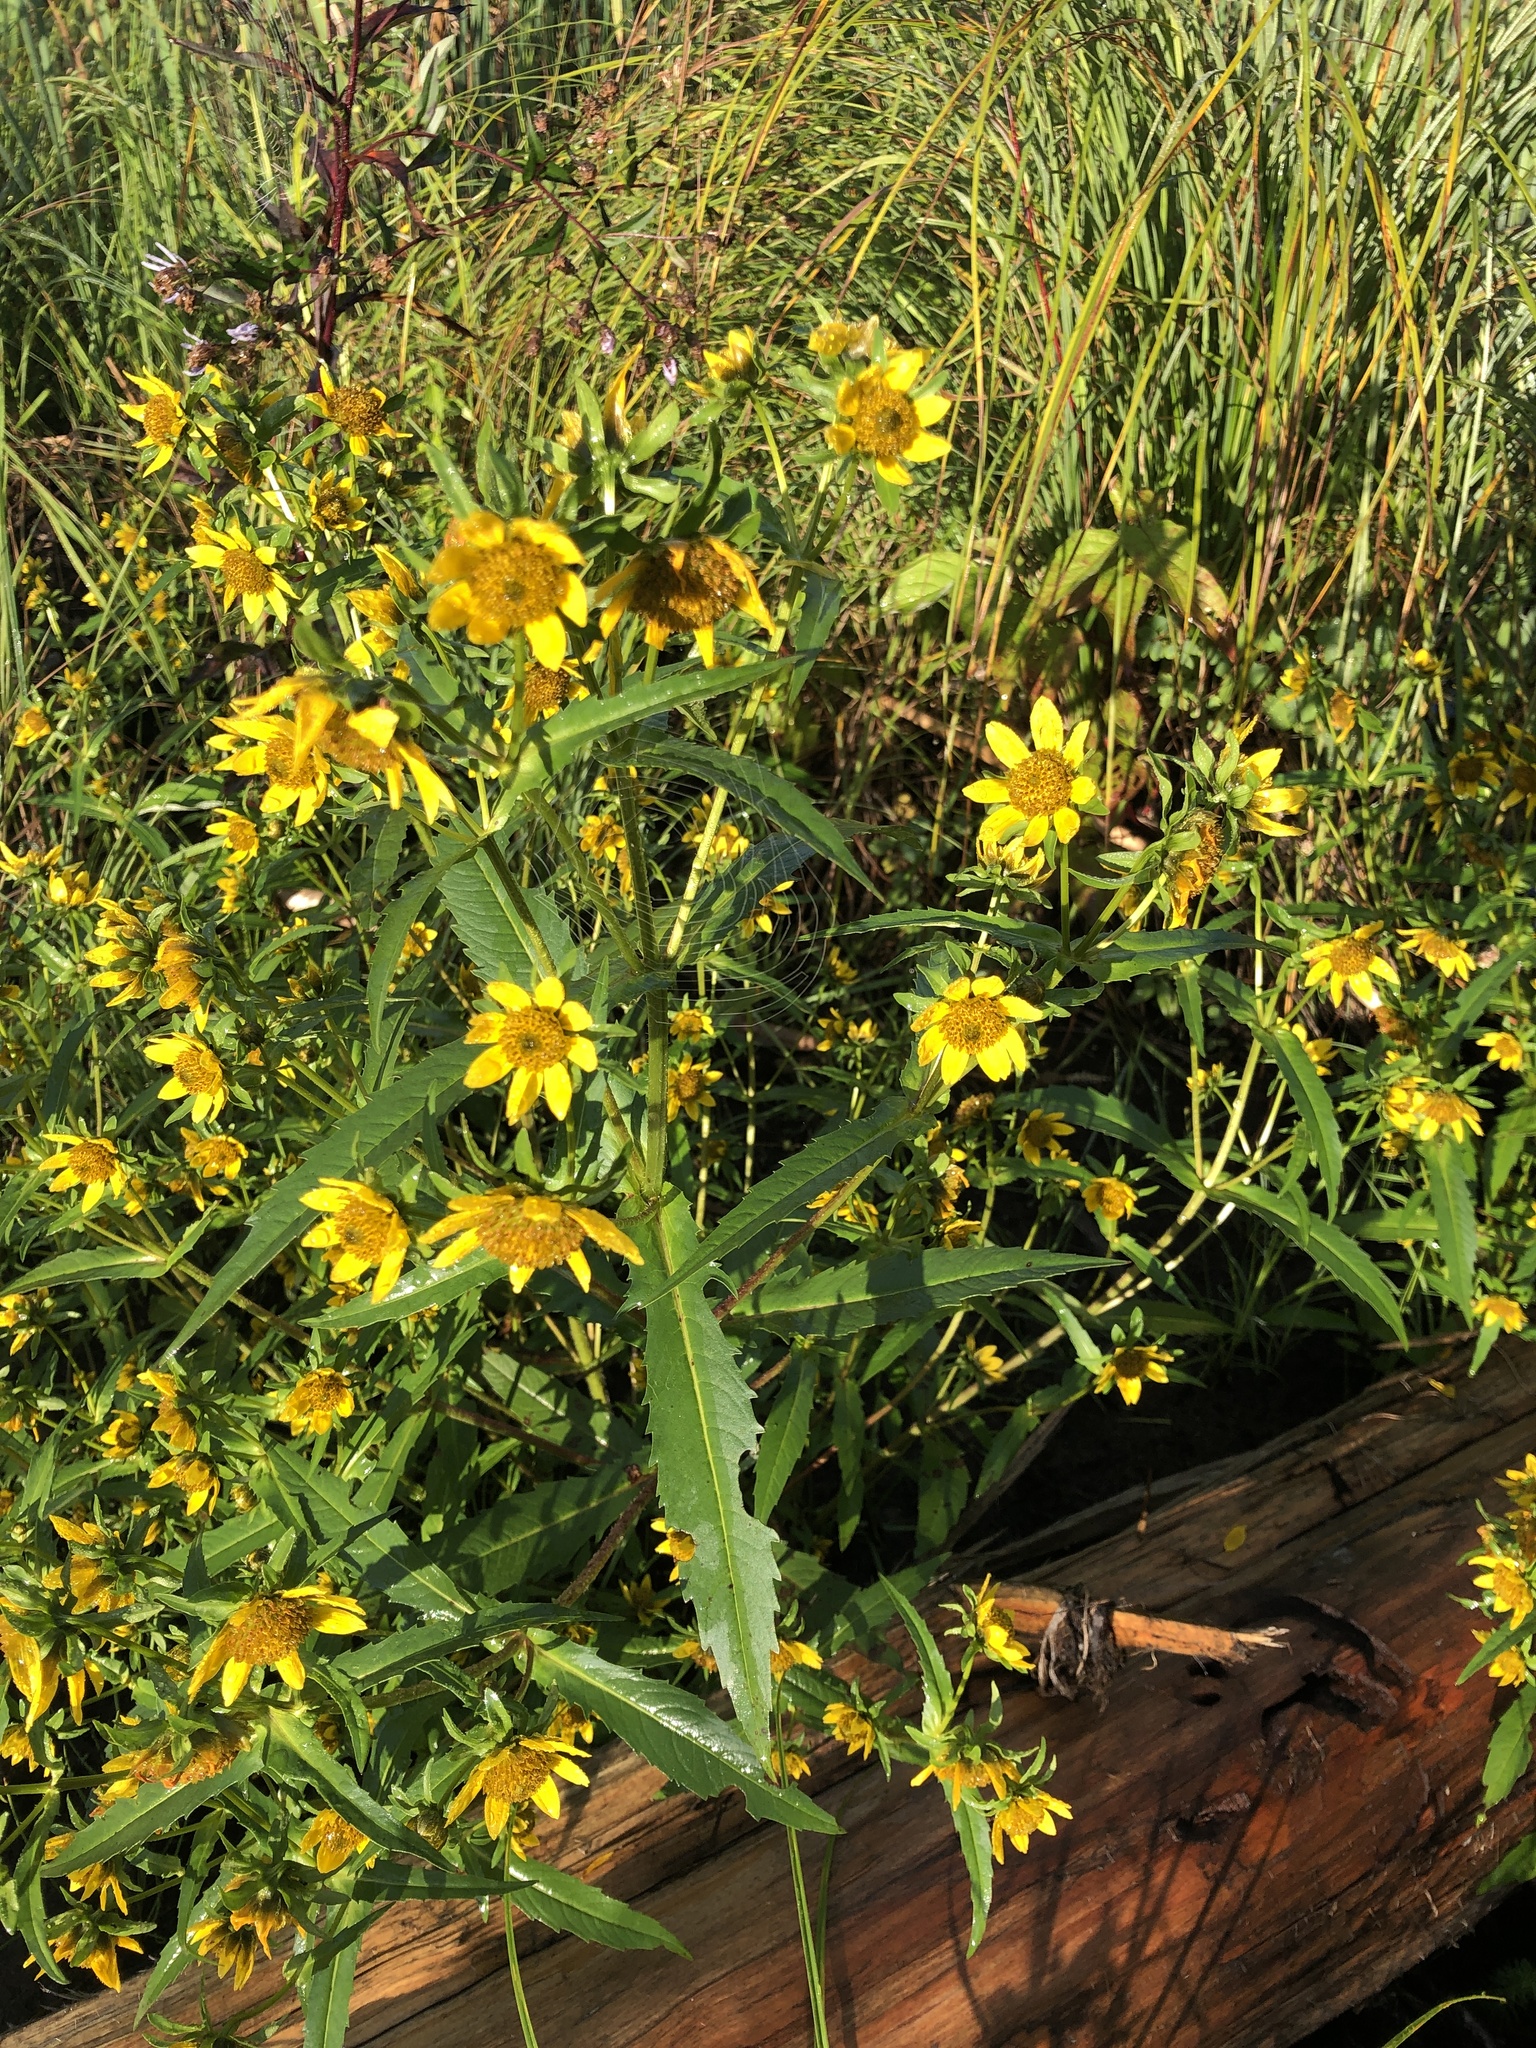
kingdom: Plantae
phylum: Tracheophyta
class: Magnoliopsida
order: Asterales
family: Asteraceae
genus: Bidens
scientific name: Bidens cernua
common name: Nodding bur-marigold
